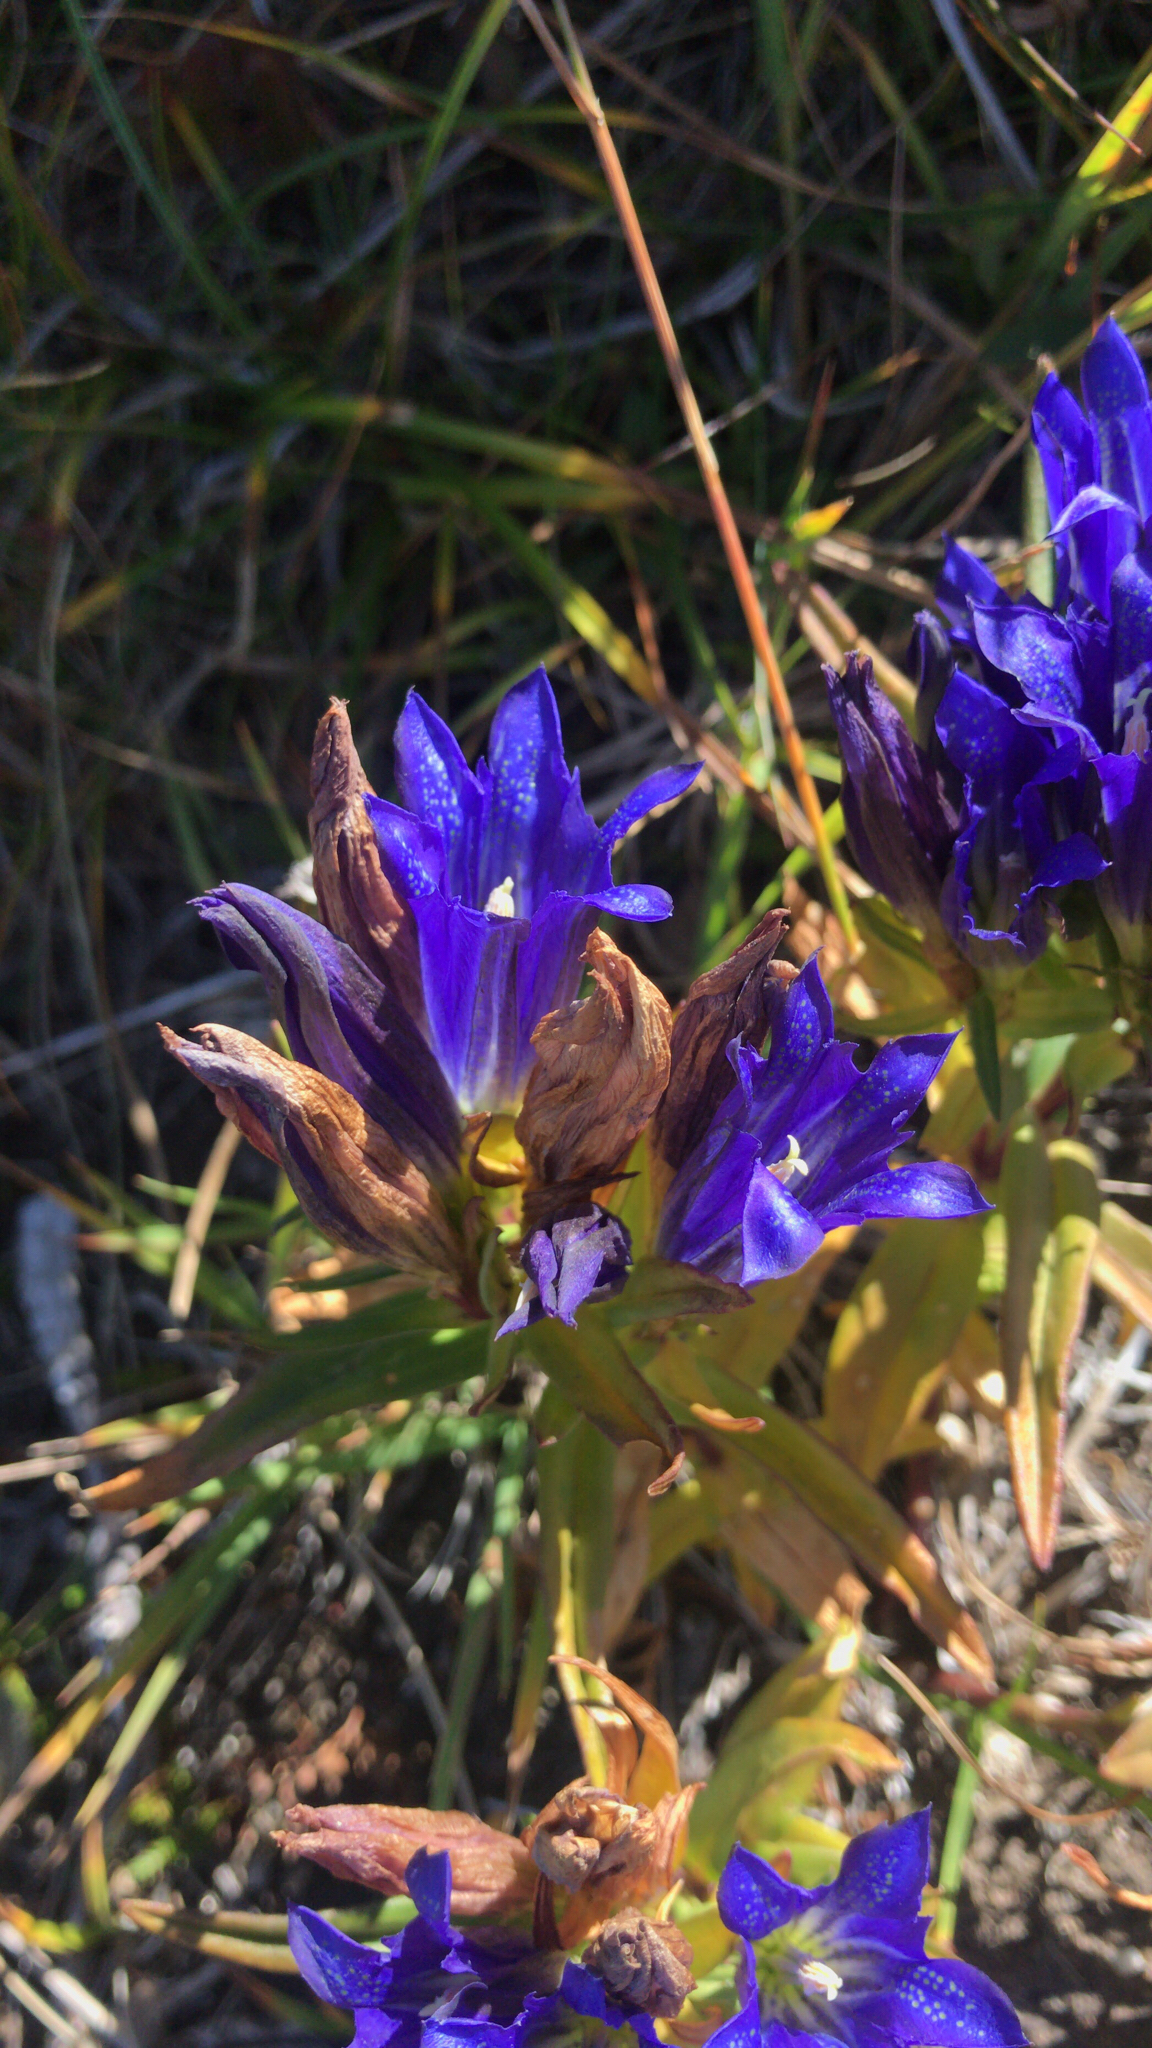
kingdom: Plantae
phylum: Tracheophyta
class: Magnoliopsida
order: Gentianales
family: Gentianaceae
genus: Gentiana
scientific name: Gentiana pneumonanthe
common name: Marsh gentian
